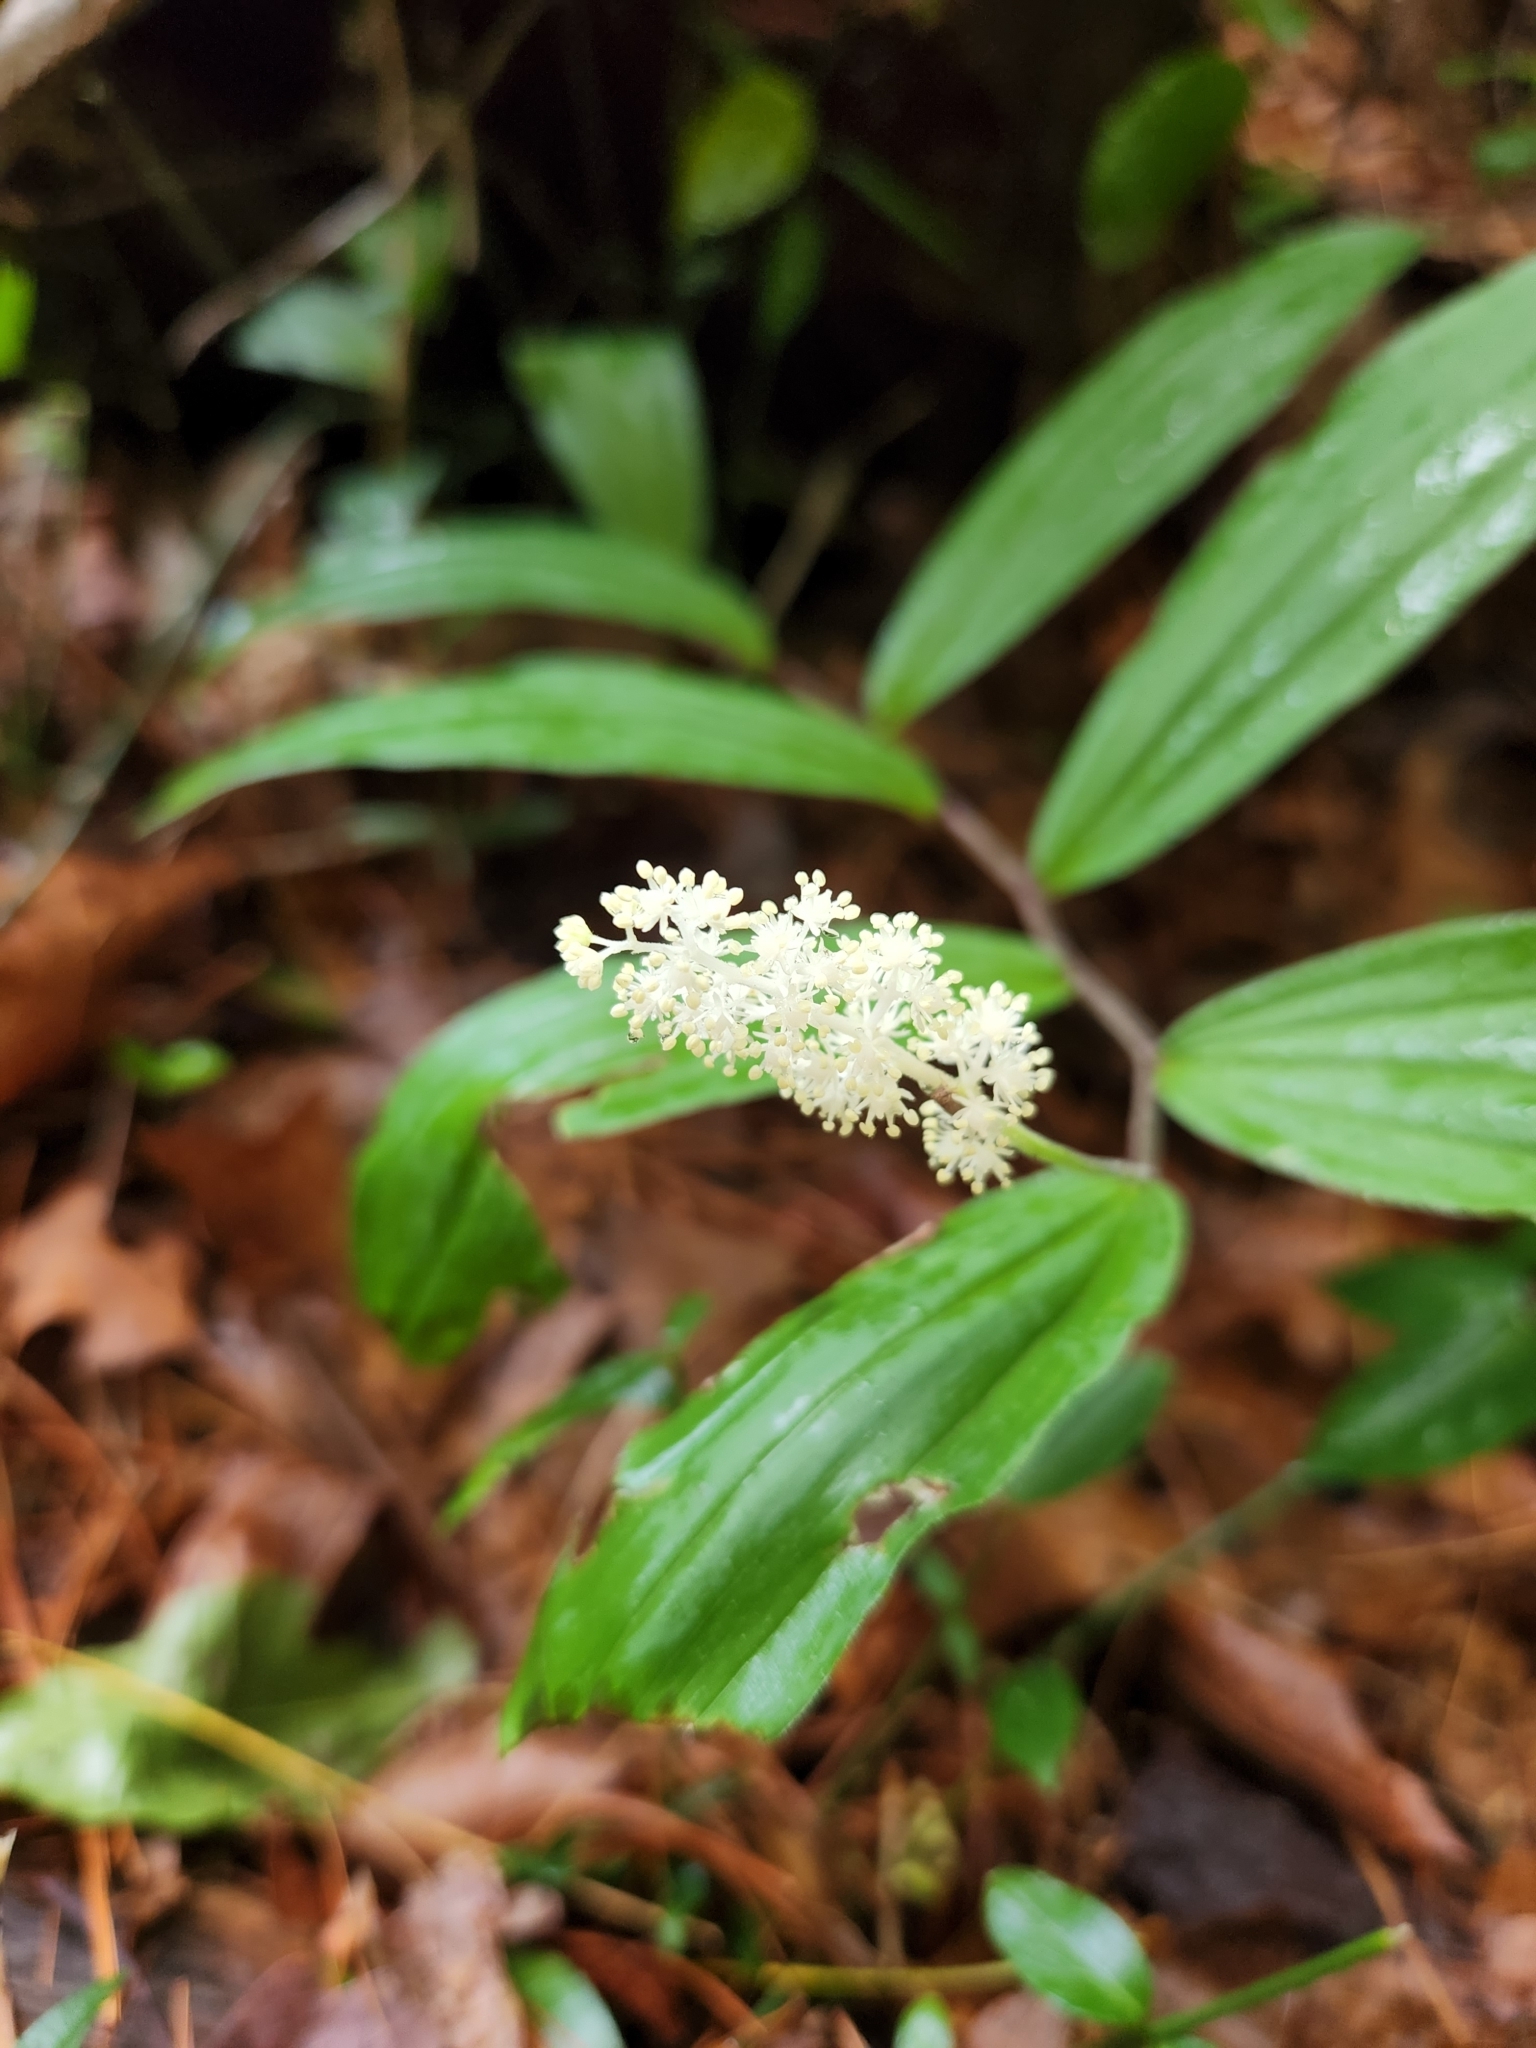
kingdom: Plantae
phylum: Tracheophyta
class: Liliopsida
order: Asparagales
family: Asparagaceae
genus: Maianthemum
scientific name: Maianthemum racemosum
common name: False spikenard
